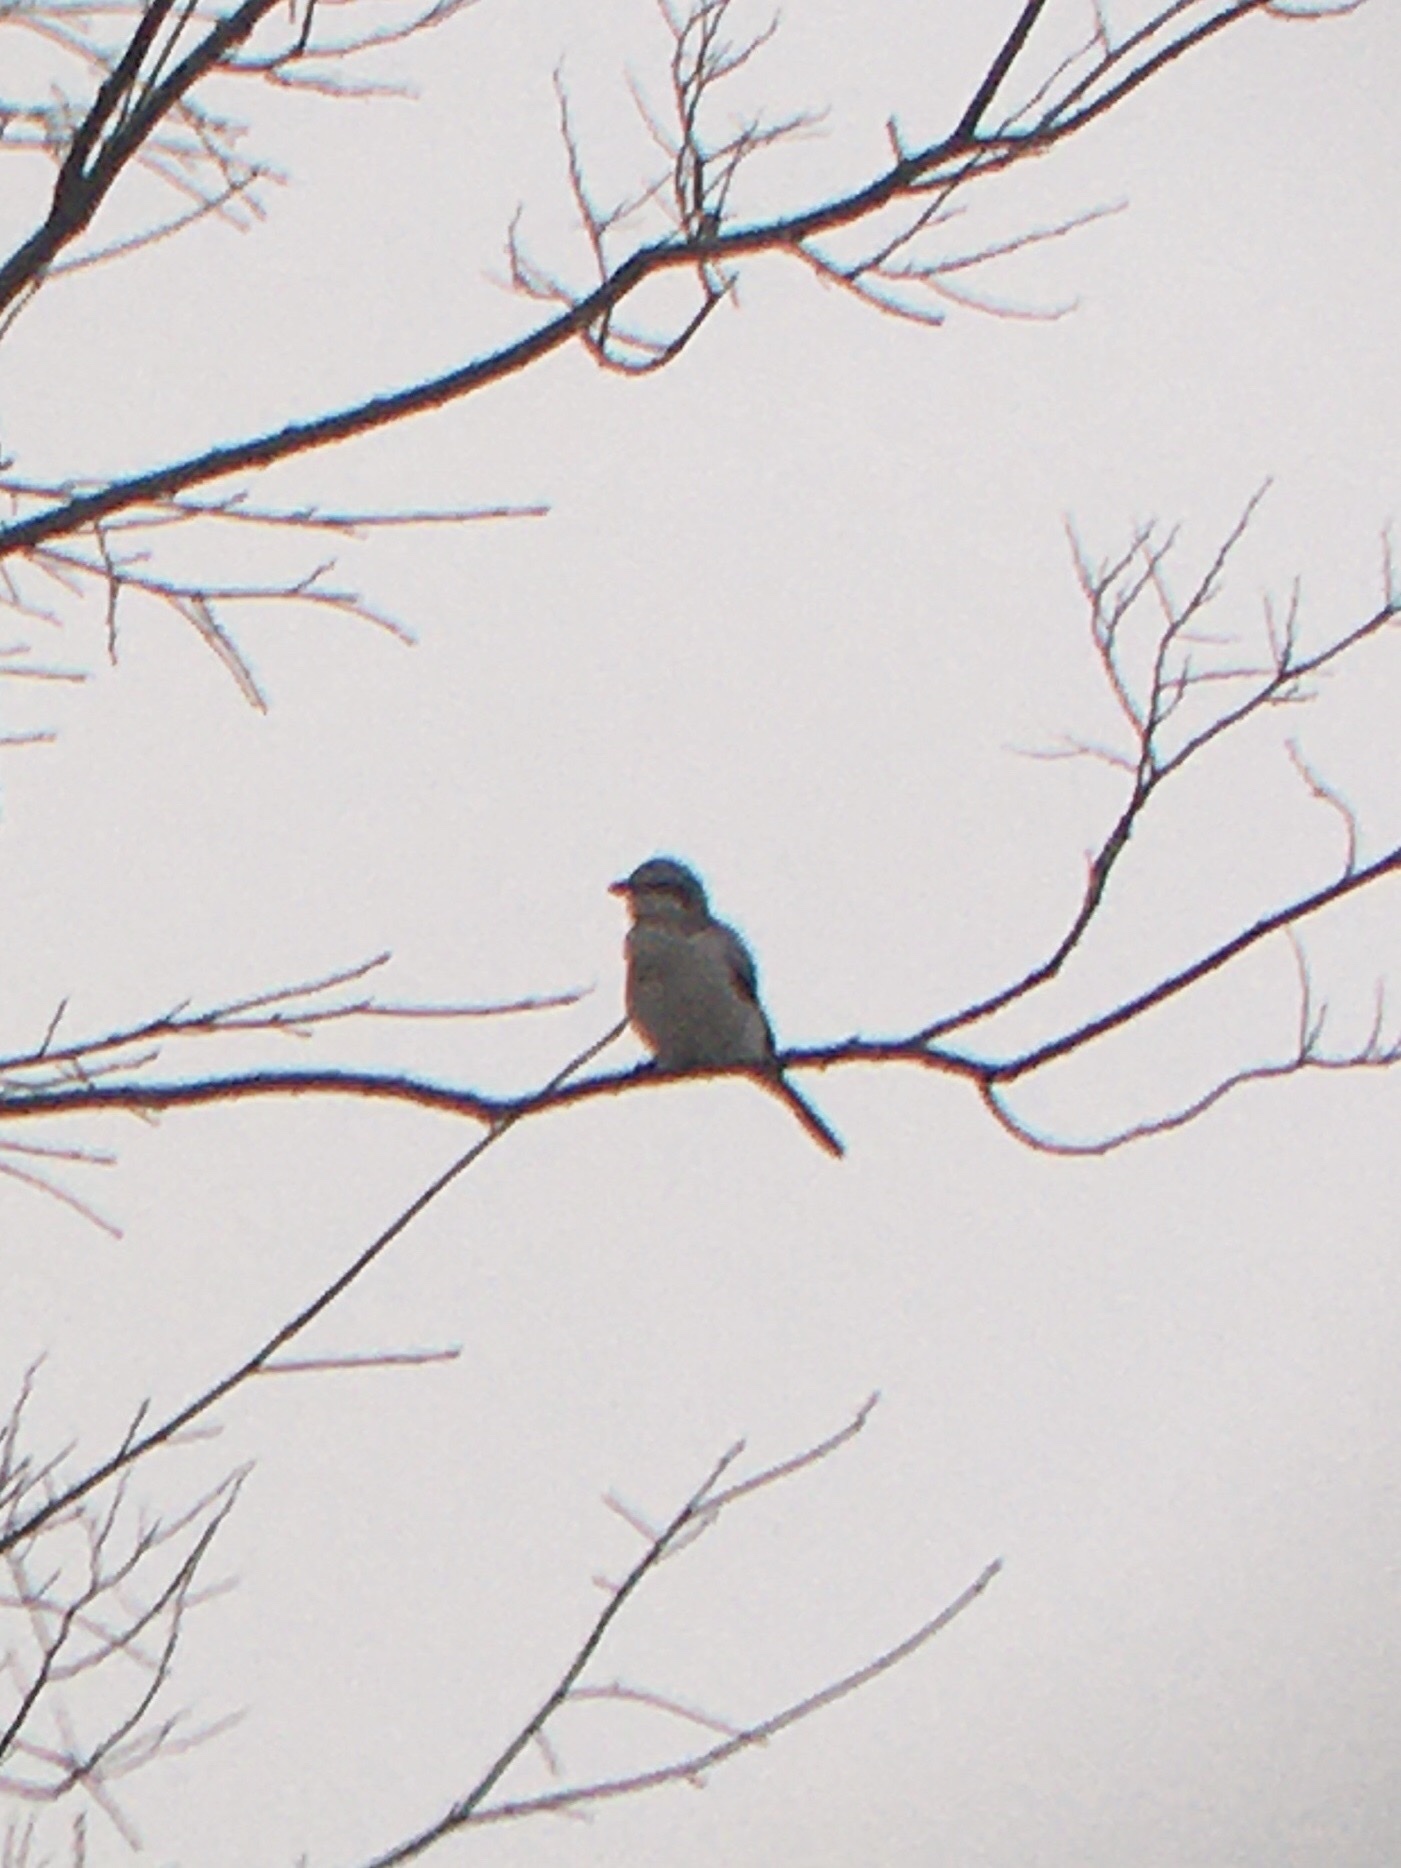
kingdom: Animalia
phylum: Chordata
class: Aves
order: Passeriformes
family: Laniidae
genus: Lanius
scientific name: Lanius borealis
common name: Northern shrike
